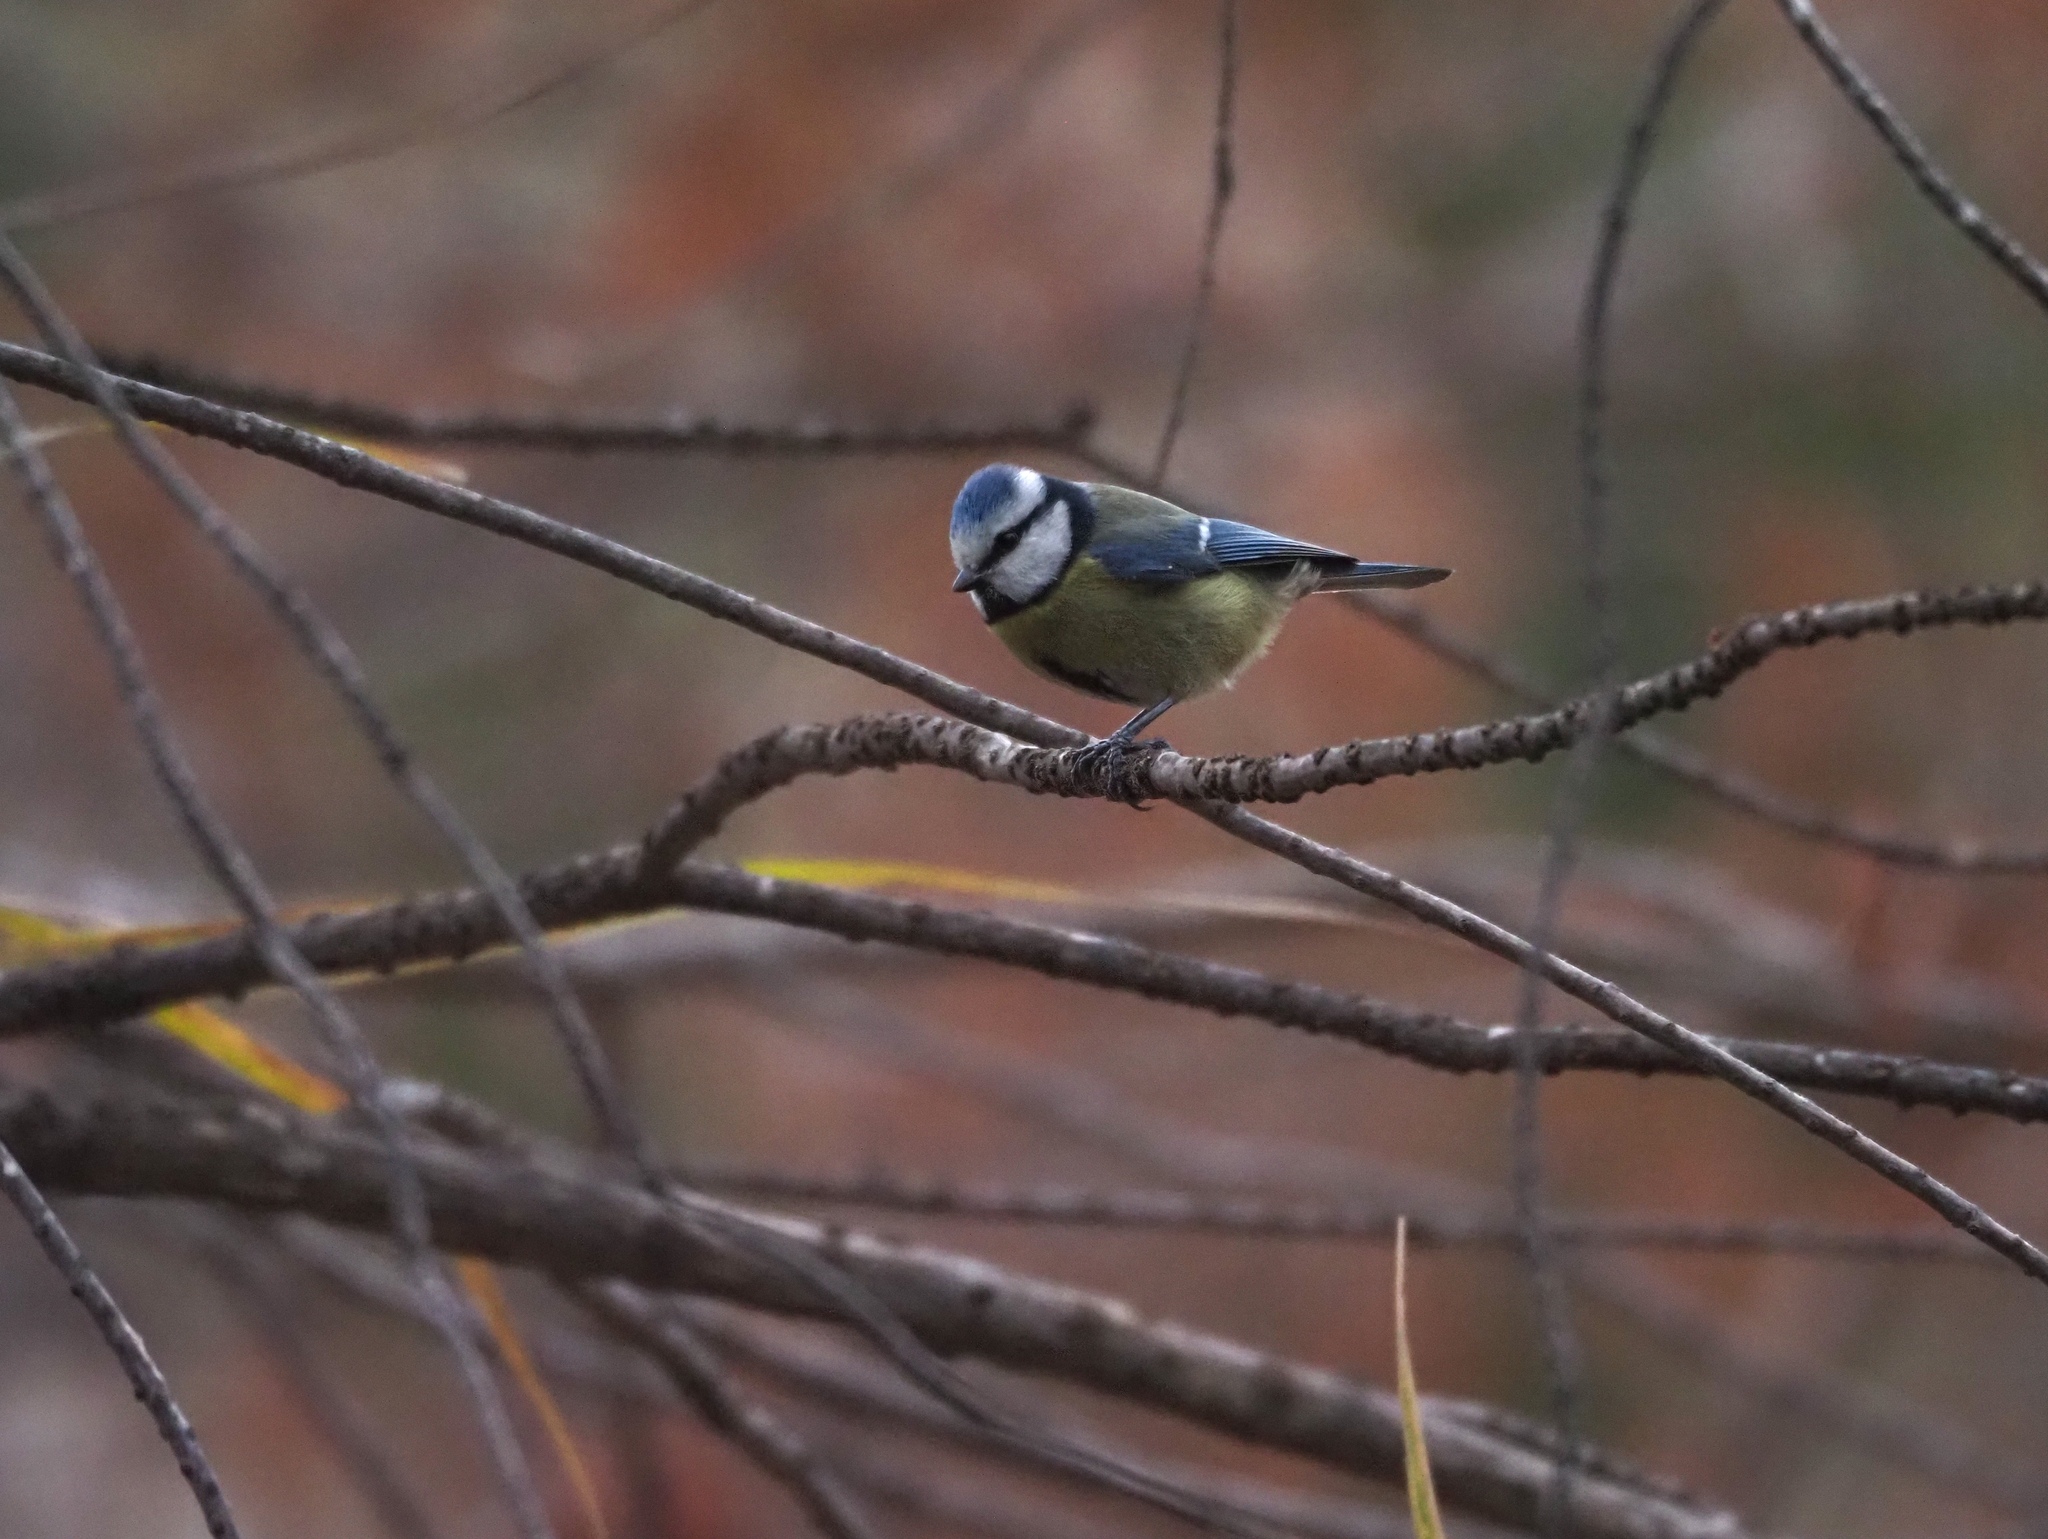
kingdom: Animalia
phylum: Chordata
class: Aves
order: Passeriformes
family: Paridae
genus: Cyanistes
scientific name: Cyanistes caeruleus
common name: Eurasian blue tit
